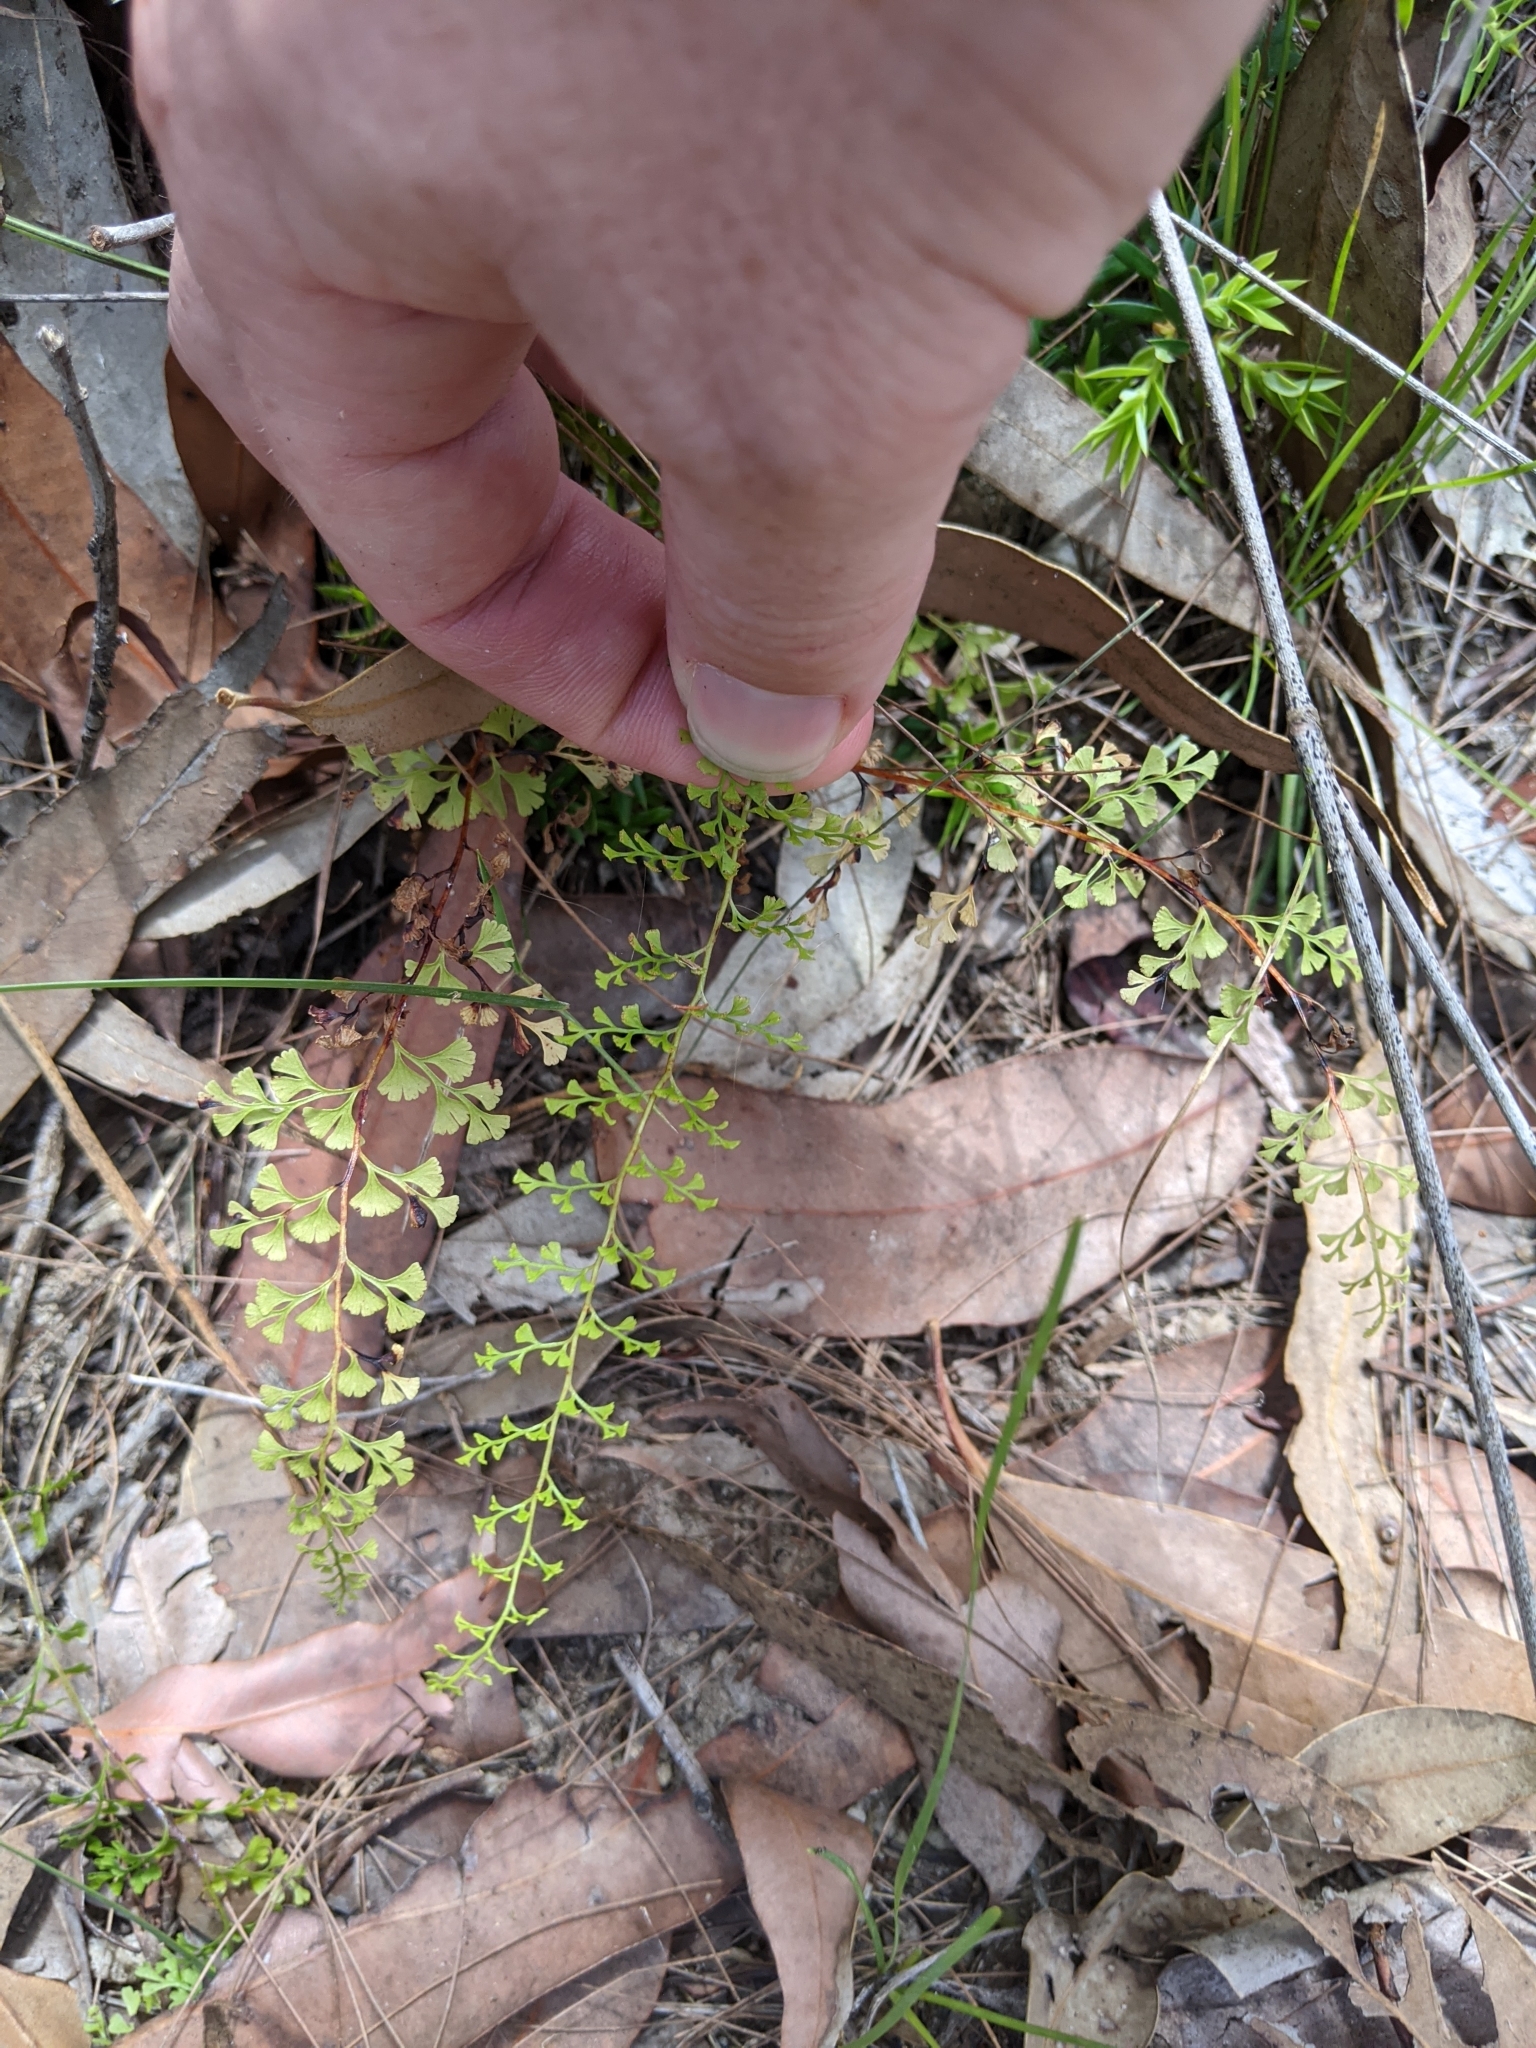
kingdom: Plantae
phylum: Tracheophyta
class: Polypodiopsida
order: Polypodiales
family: Lindsaeaceae
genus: Lindsaea
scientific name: Lindsaea microphylla
